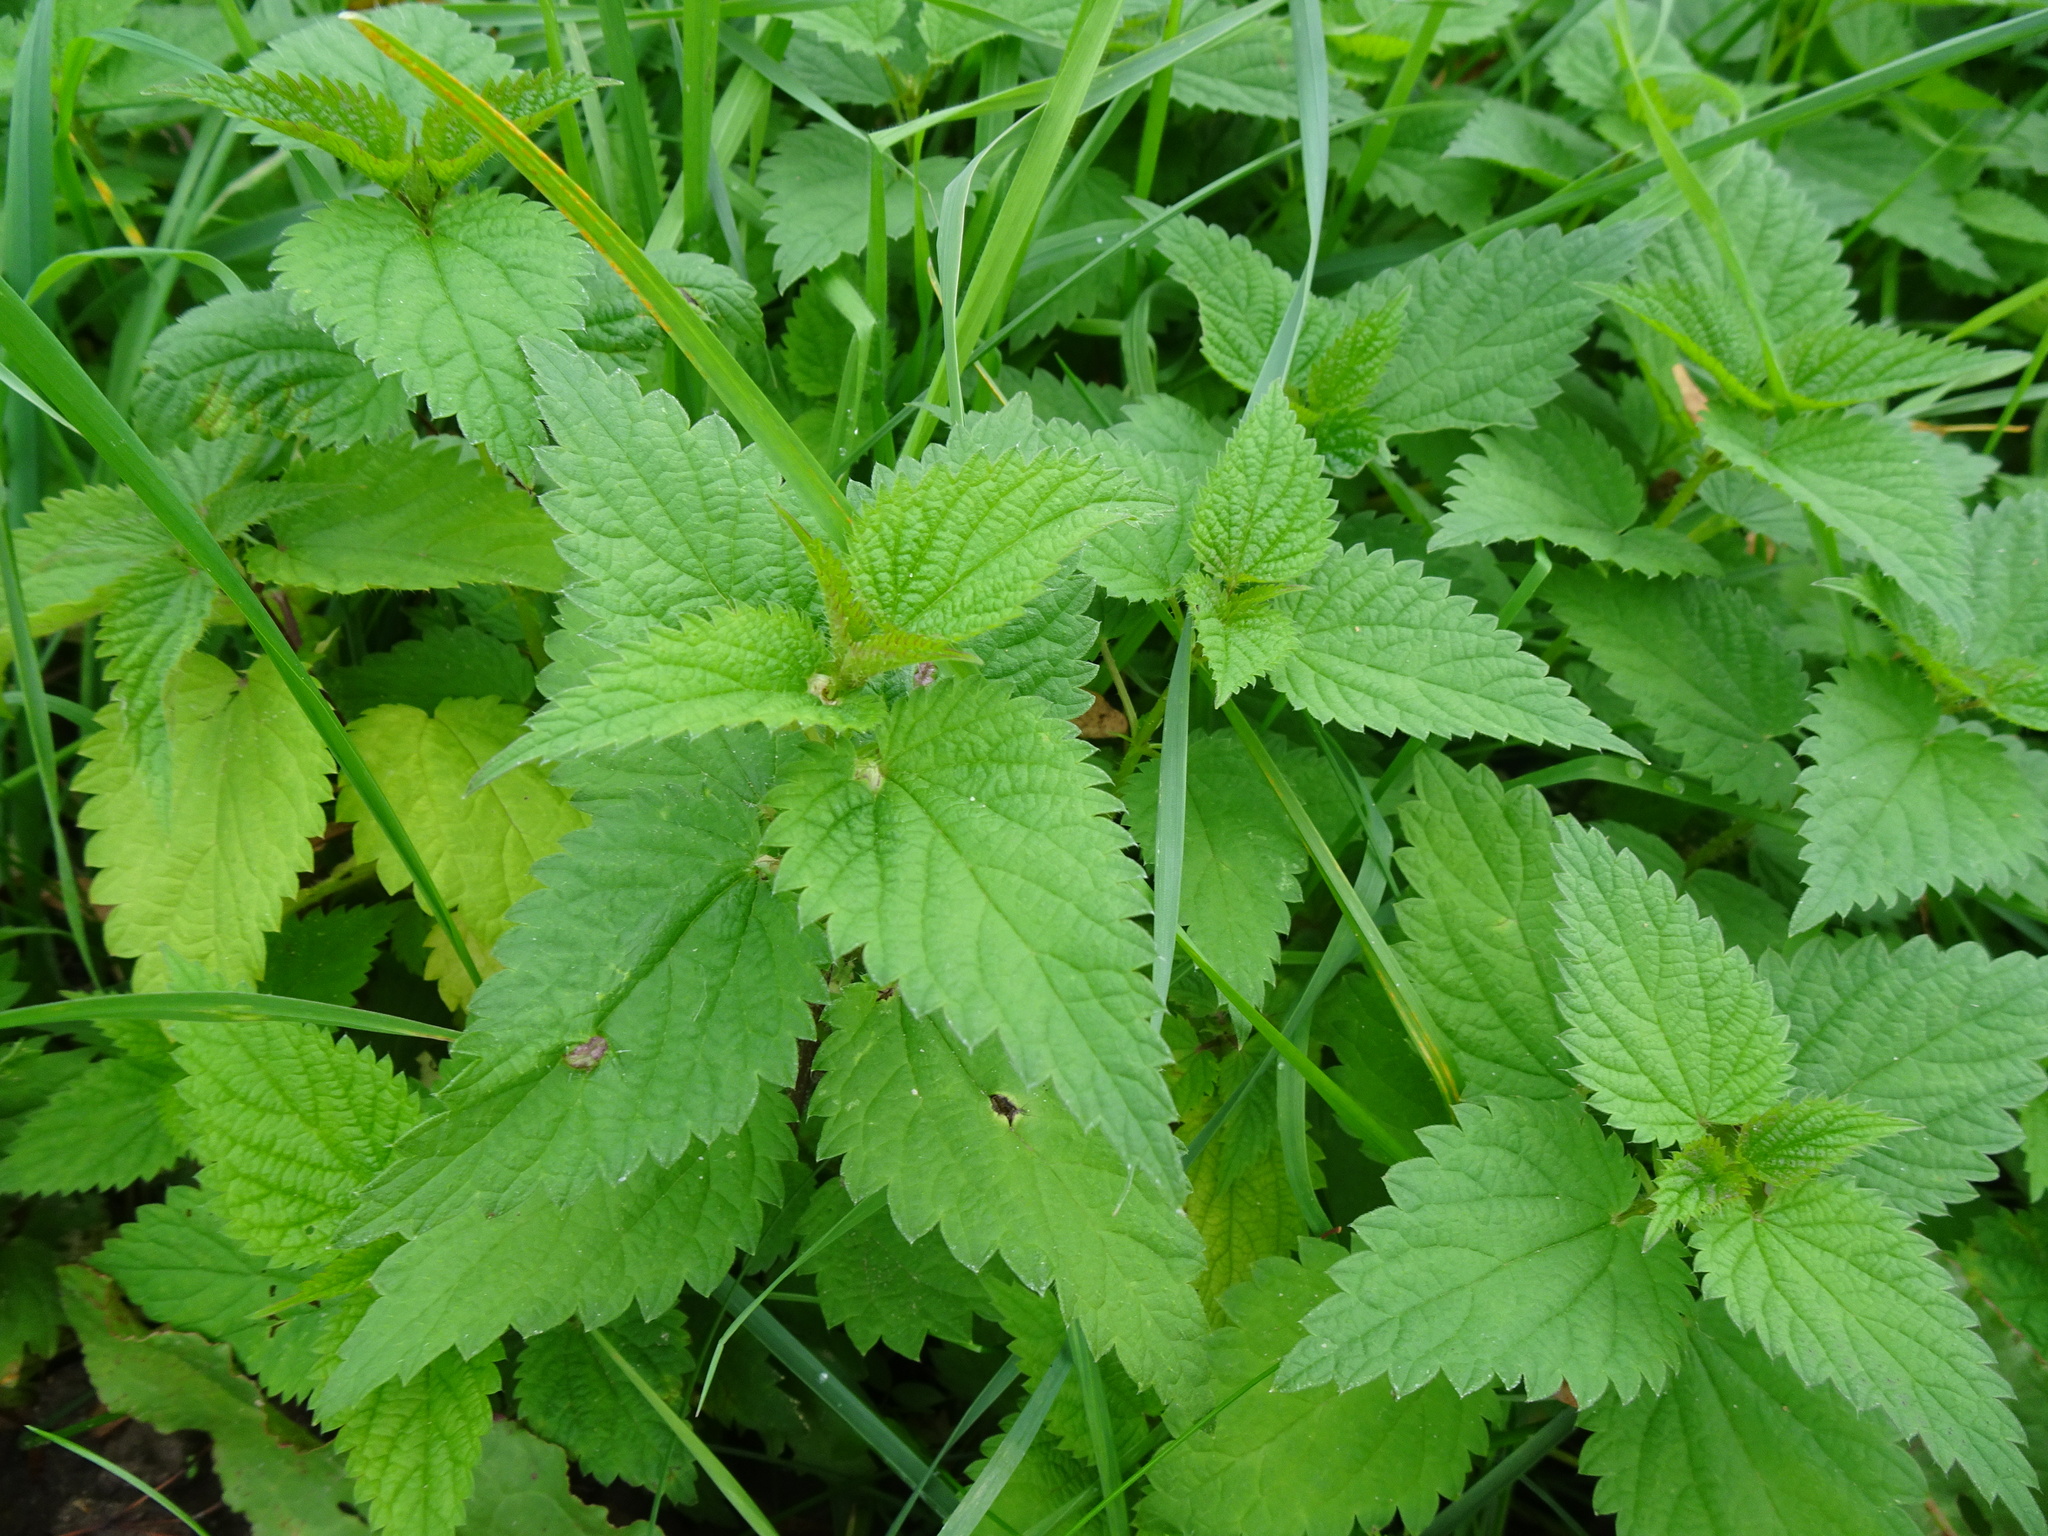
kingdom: Plantae
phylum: Tracheophyta
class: Magnoliopsida
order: Rosales
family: Urticaceae
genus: Urtica
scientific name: Urtica dioica
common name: Common nettle
